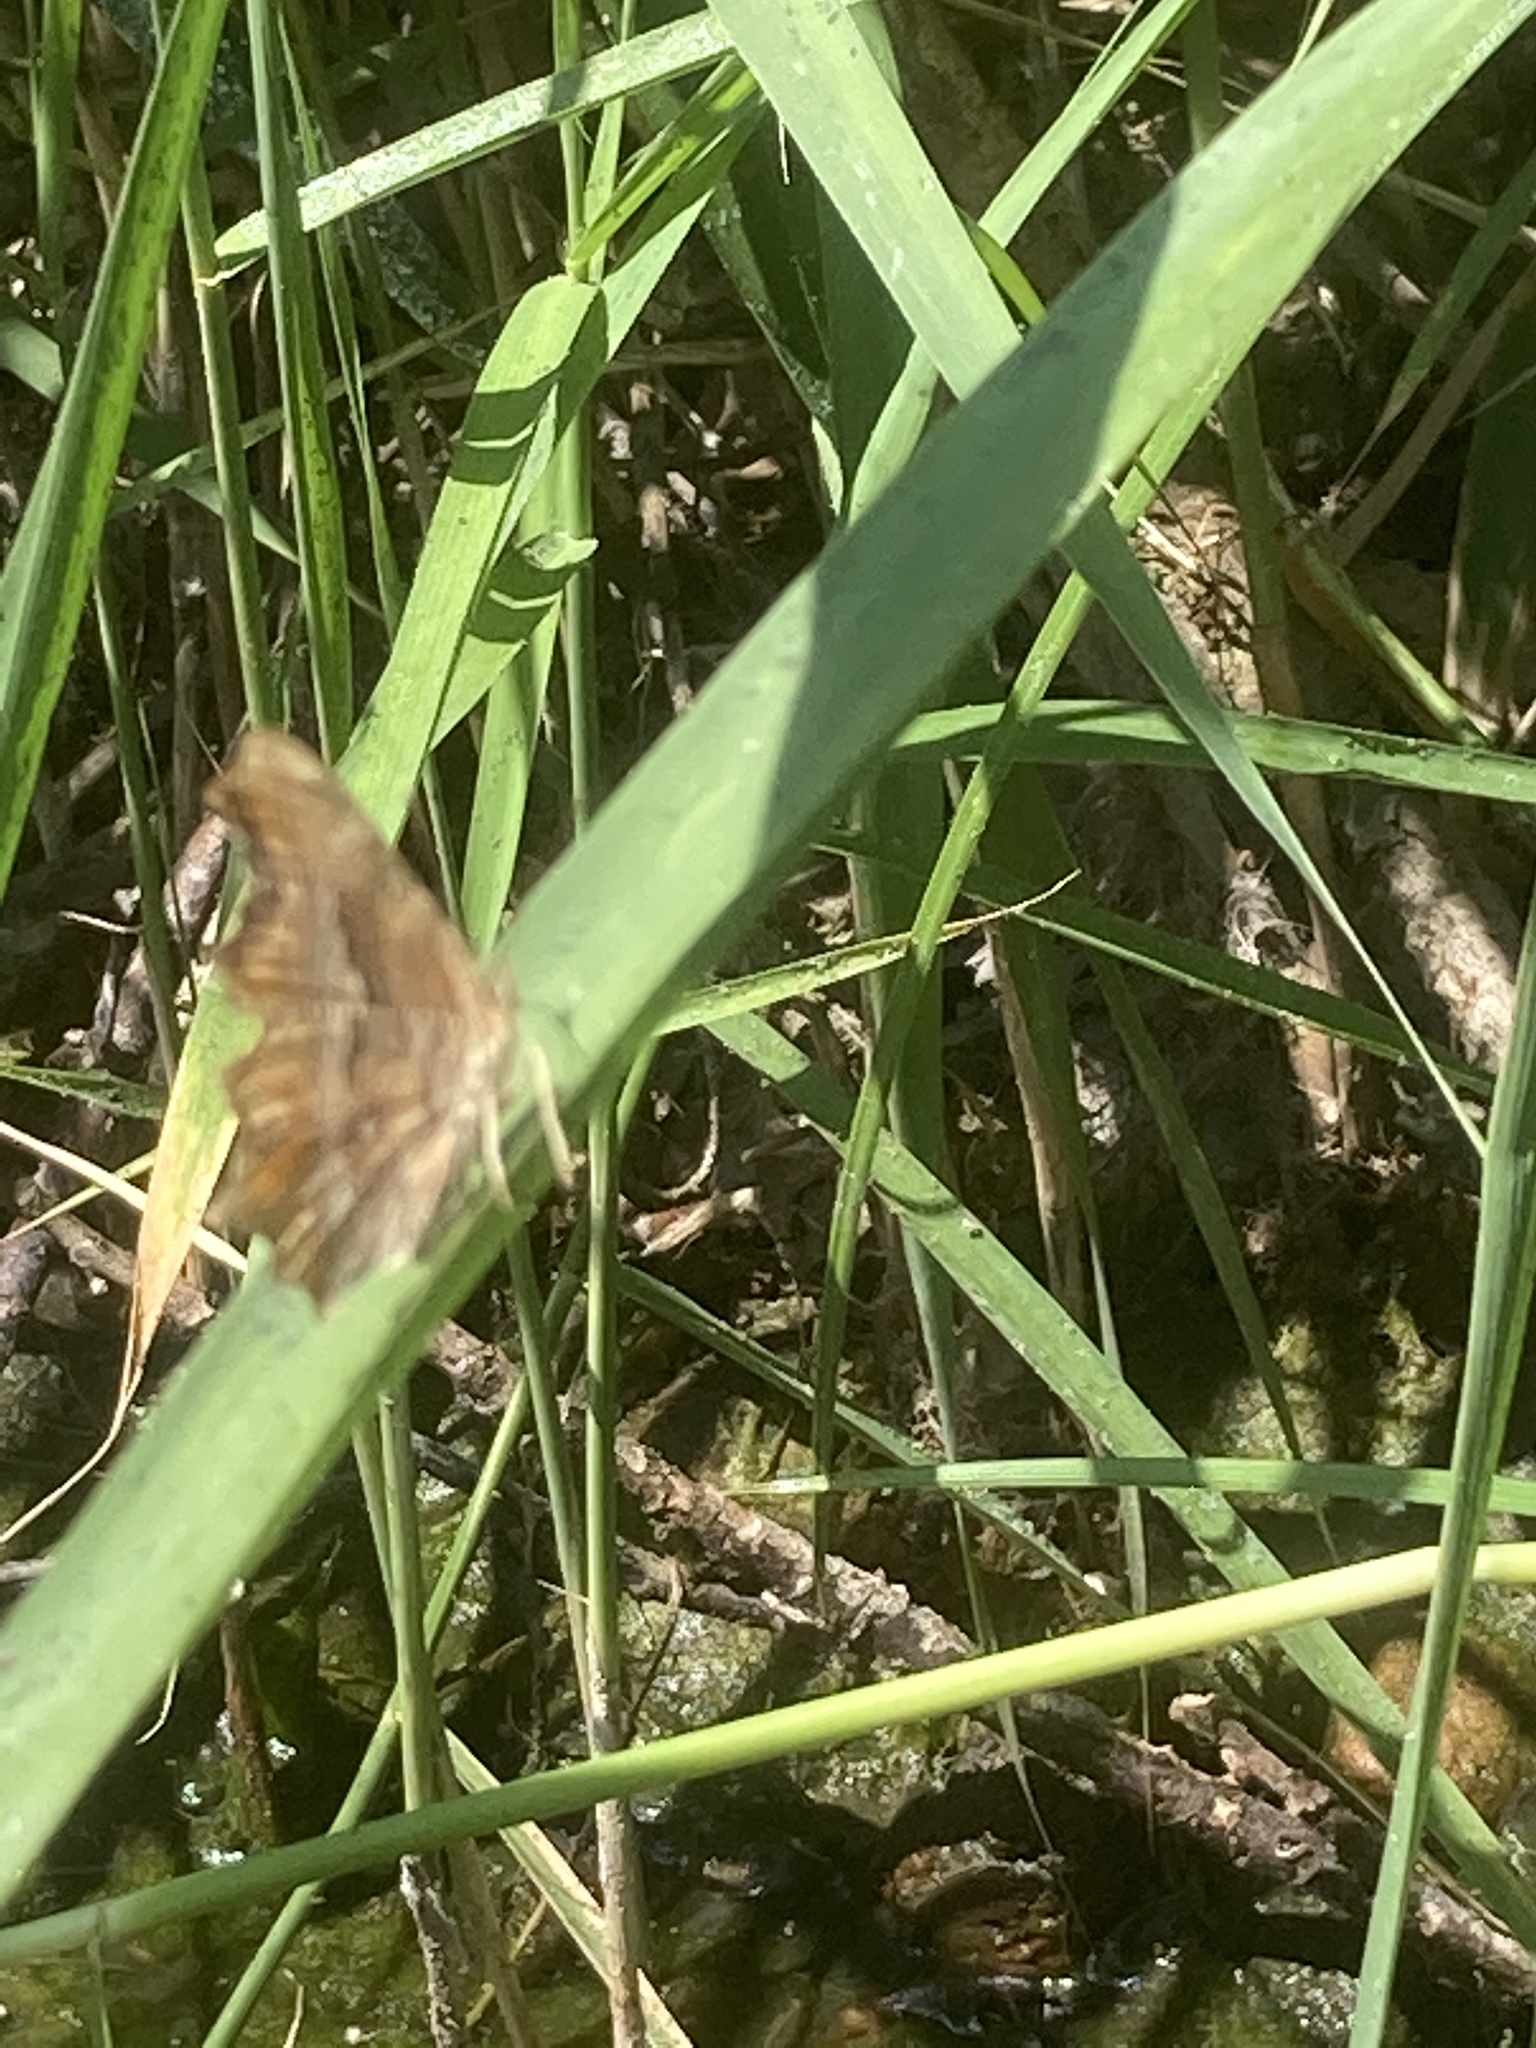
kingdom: Animalia
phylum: Arthropoda
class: Insecta
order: Lepidoptera
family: Nymphalidae
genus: Polygonia
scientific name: Polygonia egea
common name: Southern comma
